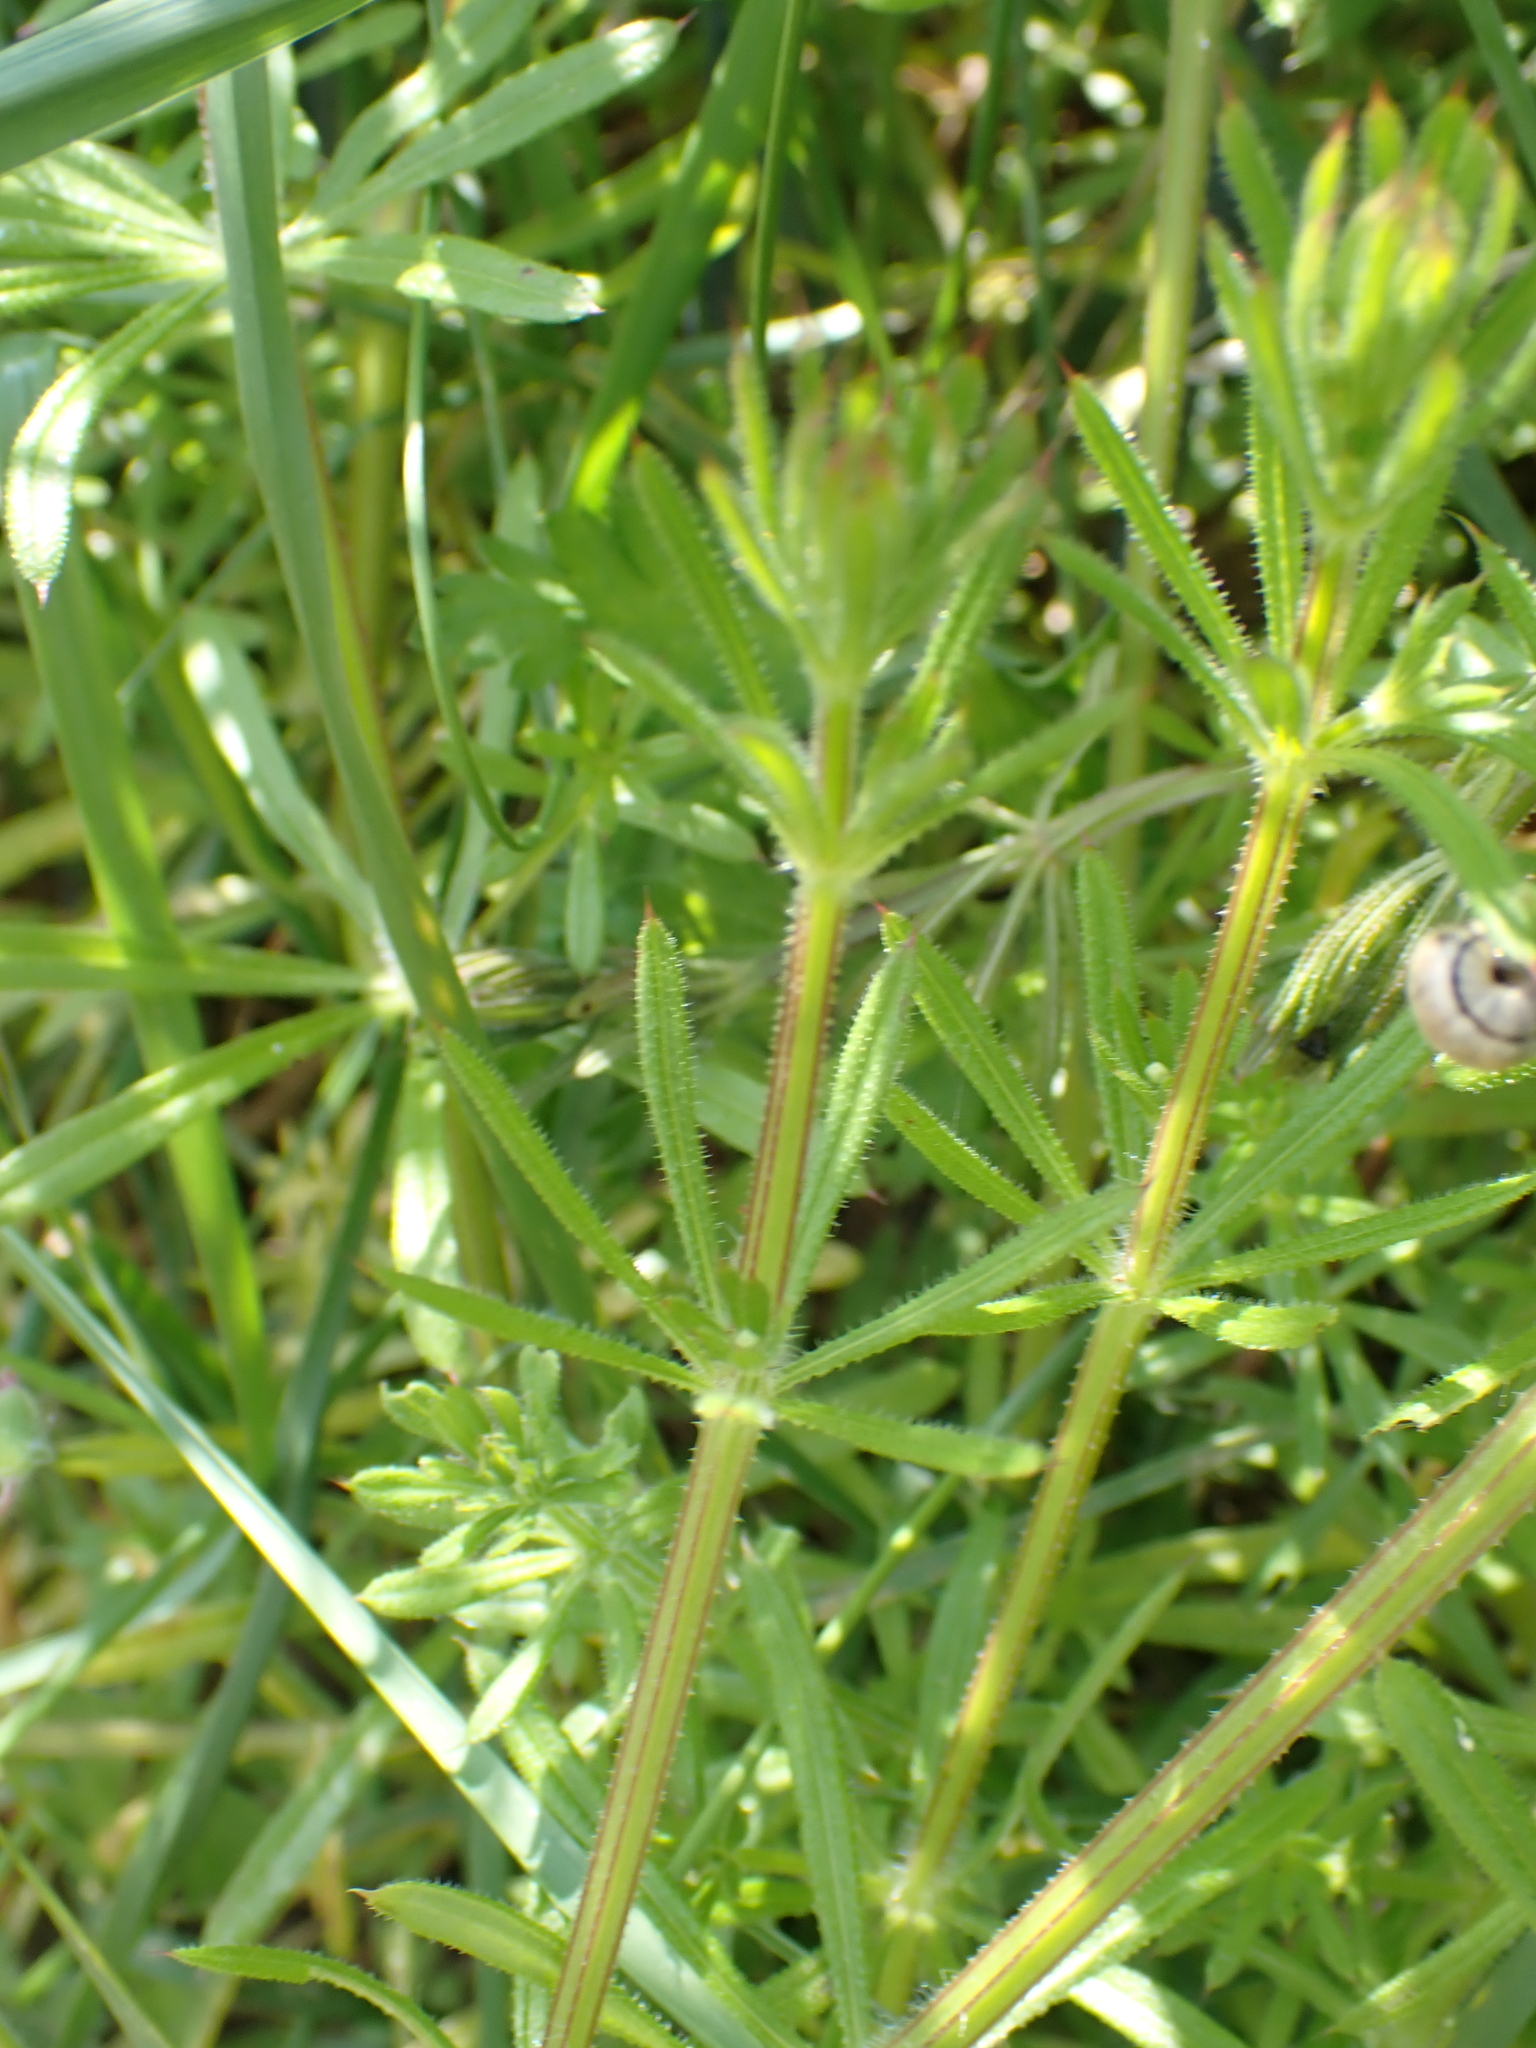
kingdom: Plantae
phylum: Tracheophyta
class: Magnoliopsida
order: Gentianales
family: Rubiaceae
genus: Galium
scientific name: Galium aparine
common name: Cleavers
